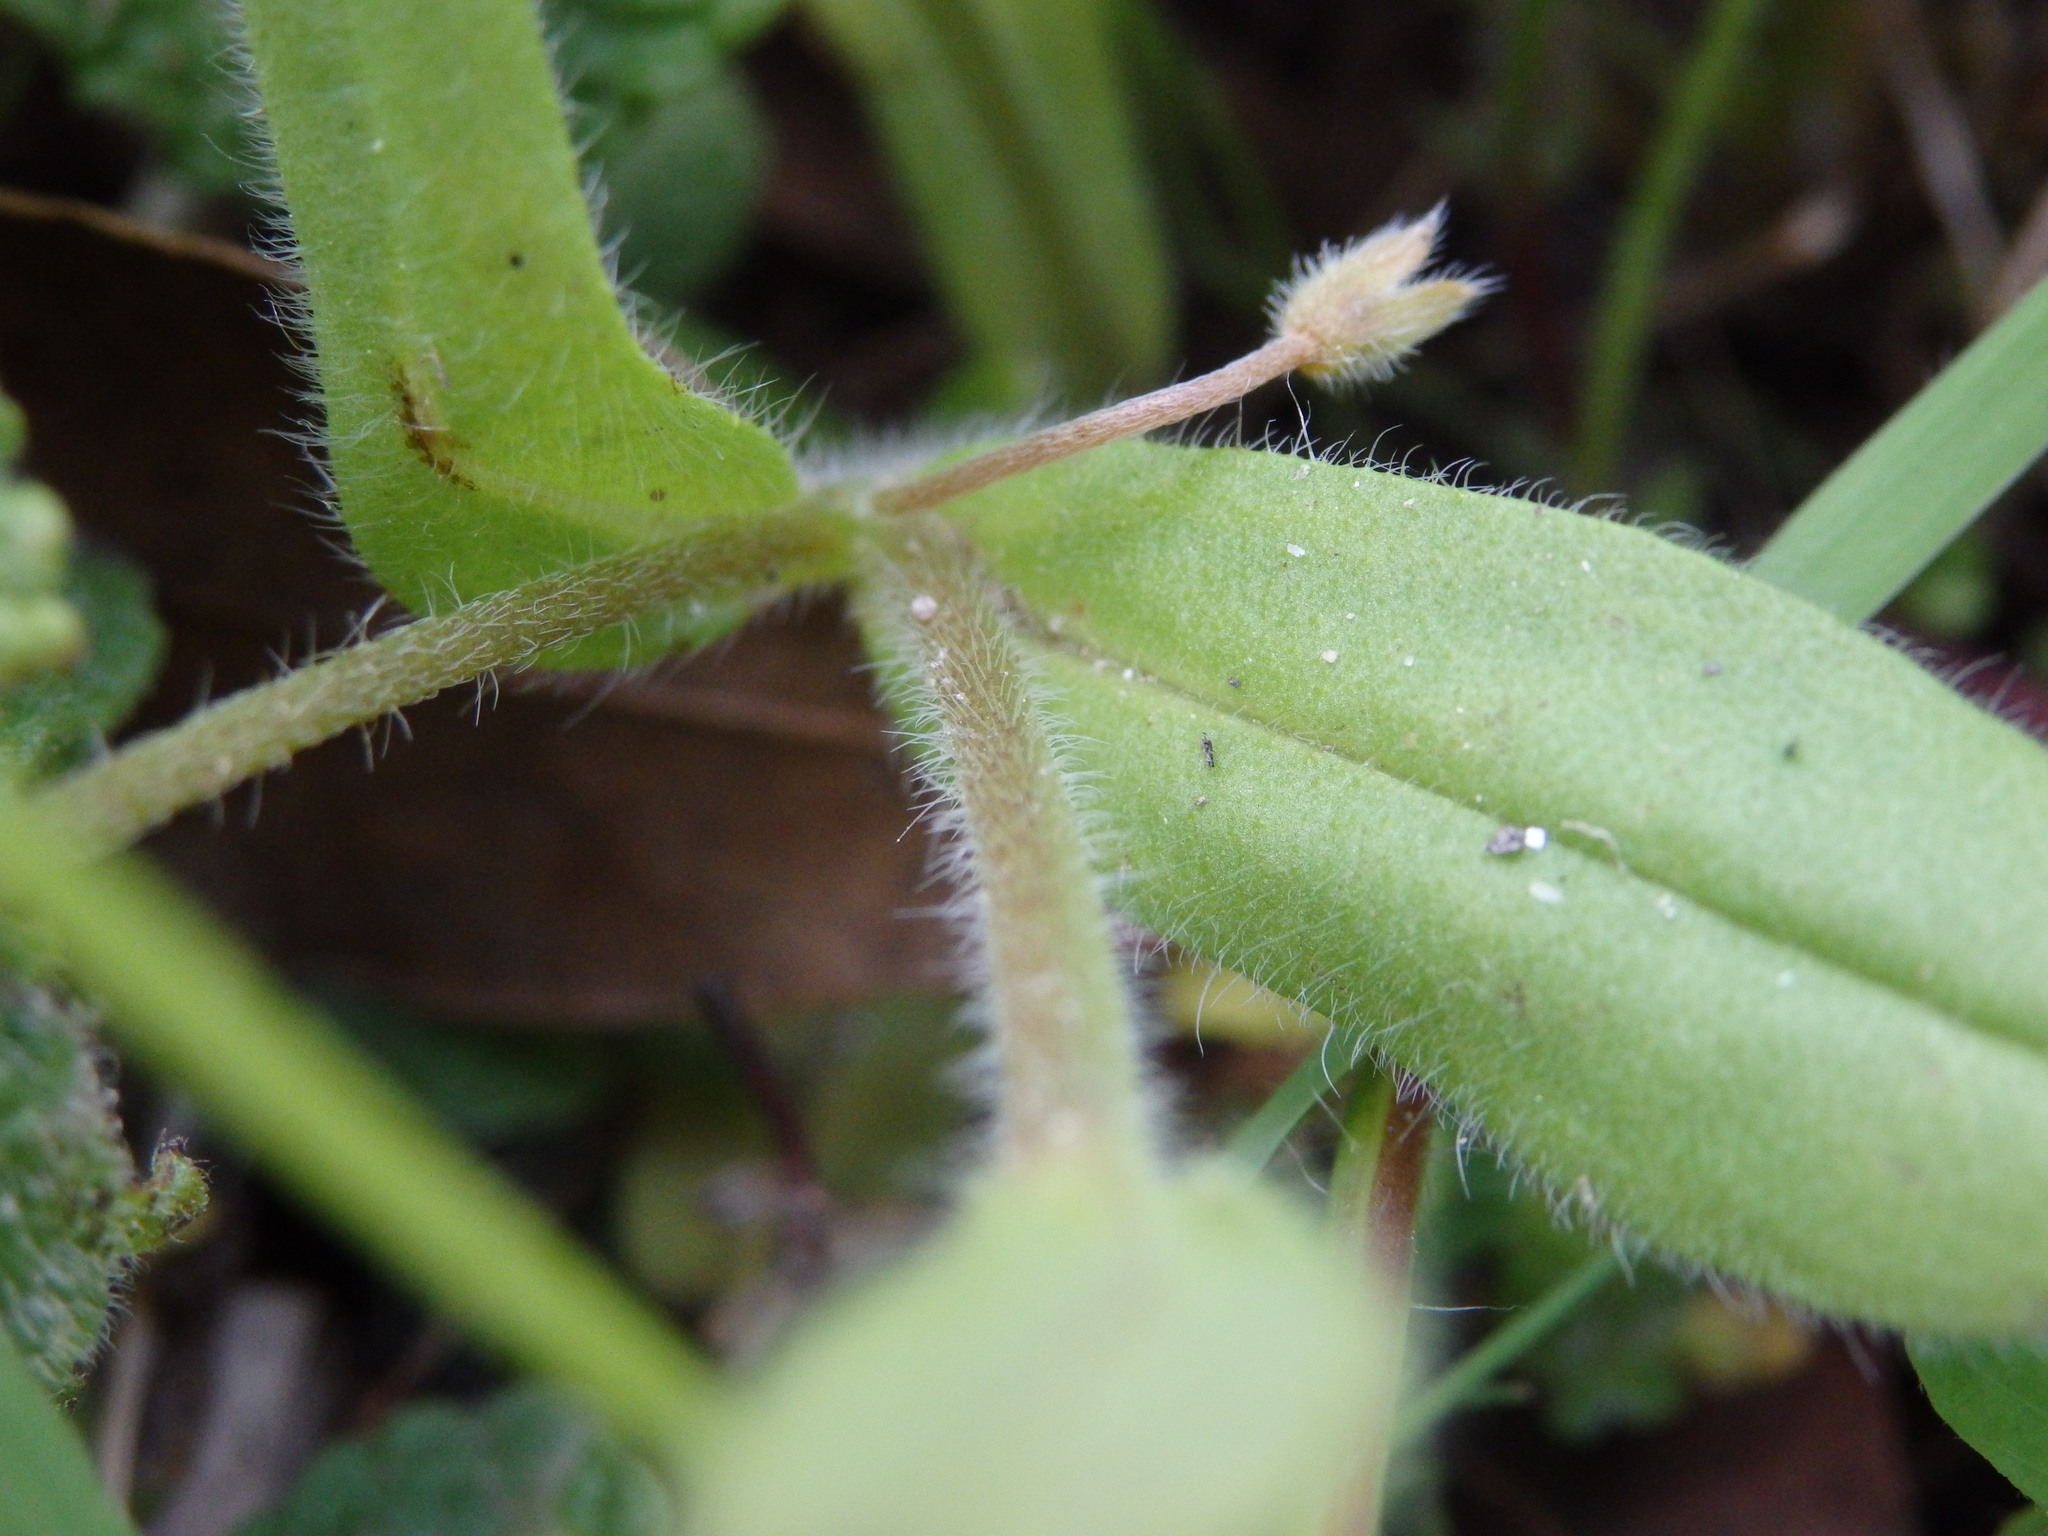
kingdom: Plantae
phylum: Tracheophyta
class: Magnoliopsida
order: Boraginales
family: Boraginaceae
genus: Myosotis
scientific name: Myosotis ramosissima
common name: Early forget-me-not
